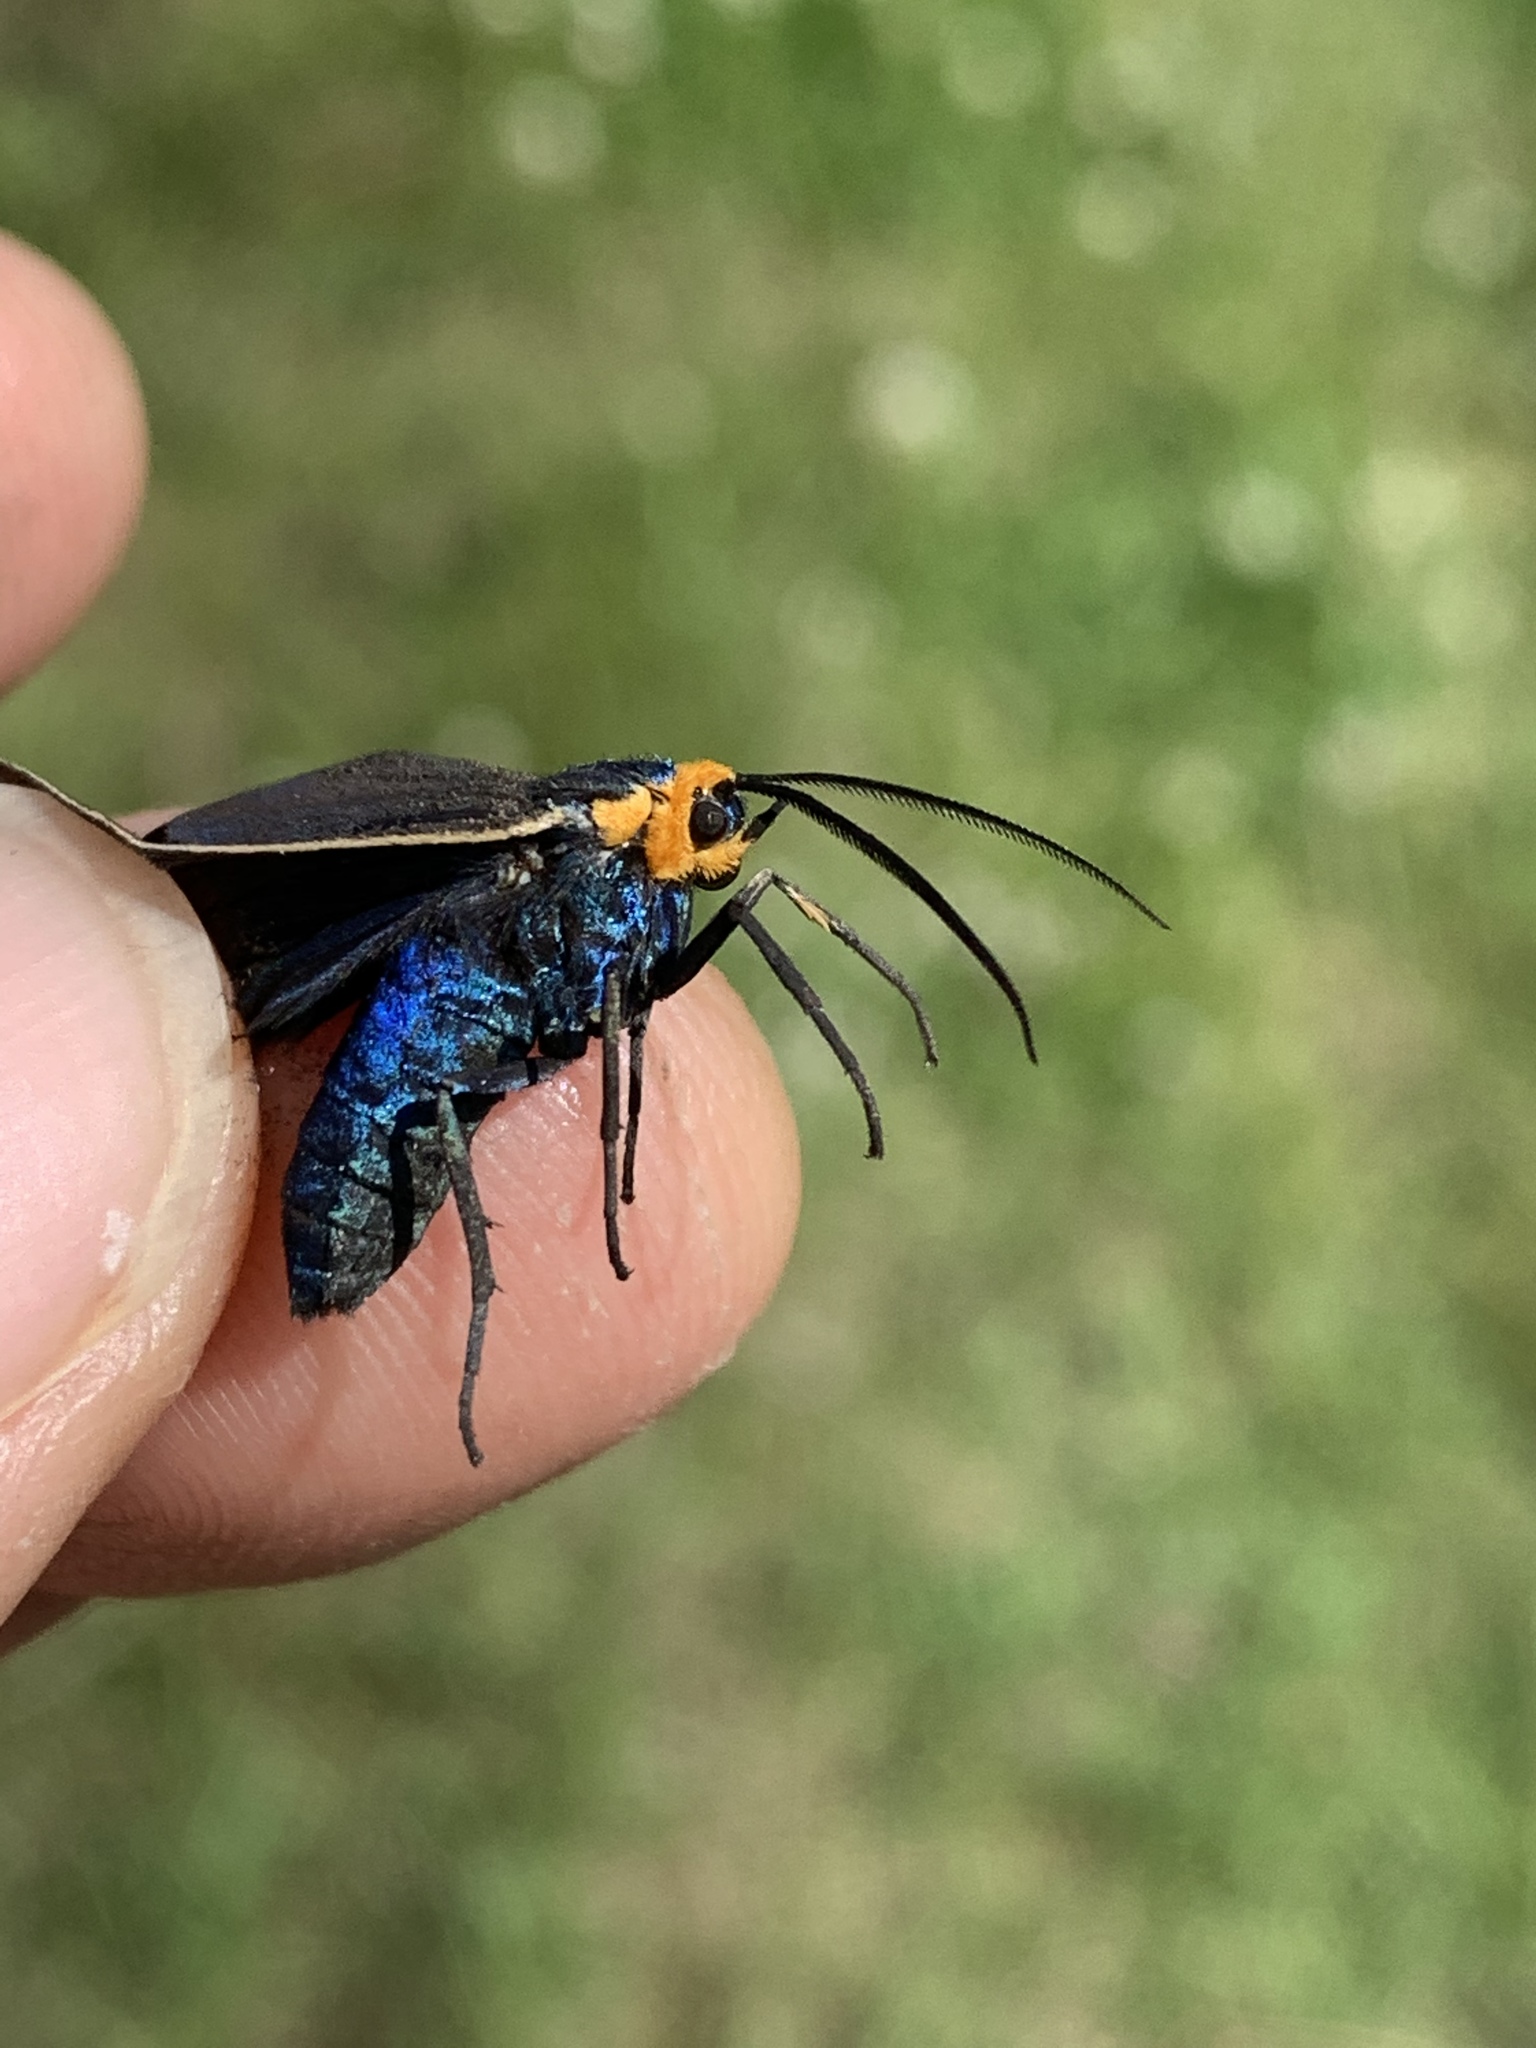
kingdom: Animalia
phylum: Arthropoda
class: Insecta
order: Lepidoptera
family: Erebidae
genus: Ctenucha
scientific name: Ctenucha virginica
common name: Virginia ctenucha moth
